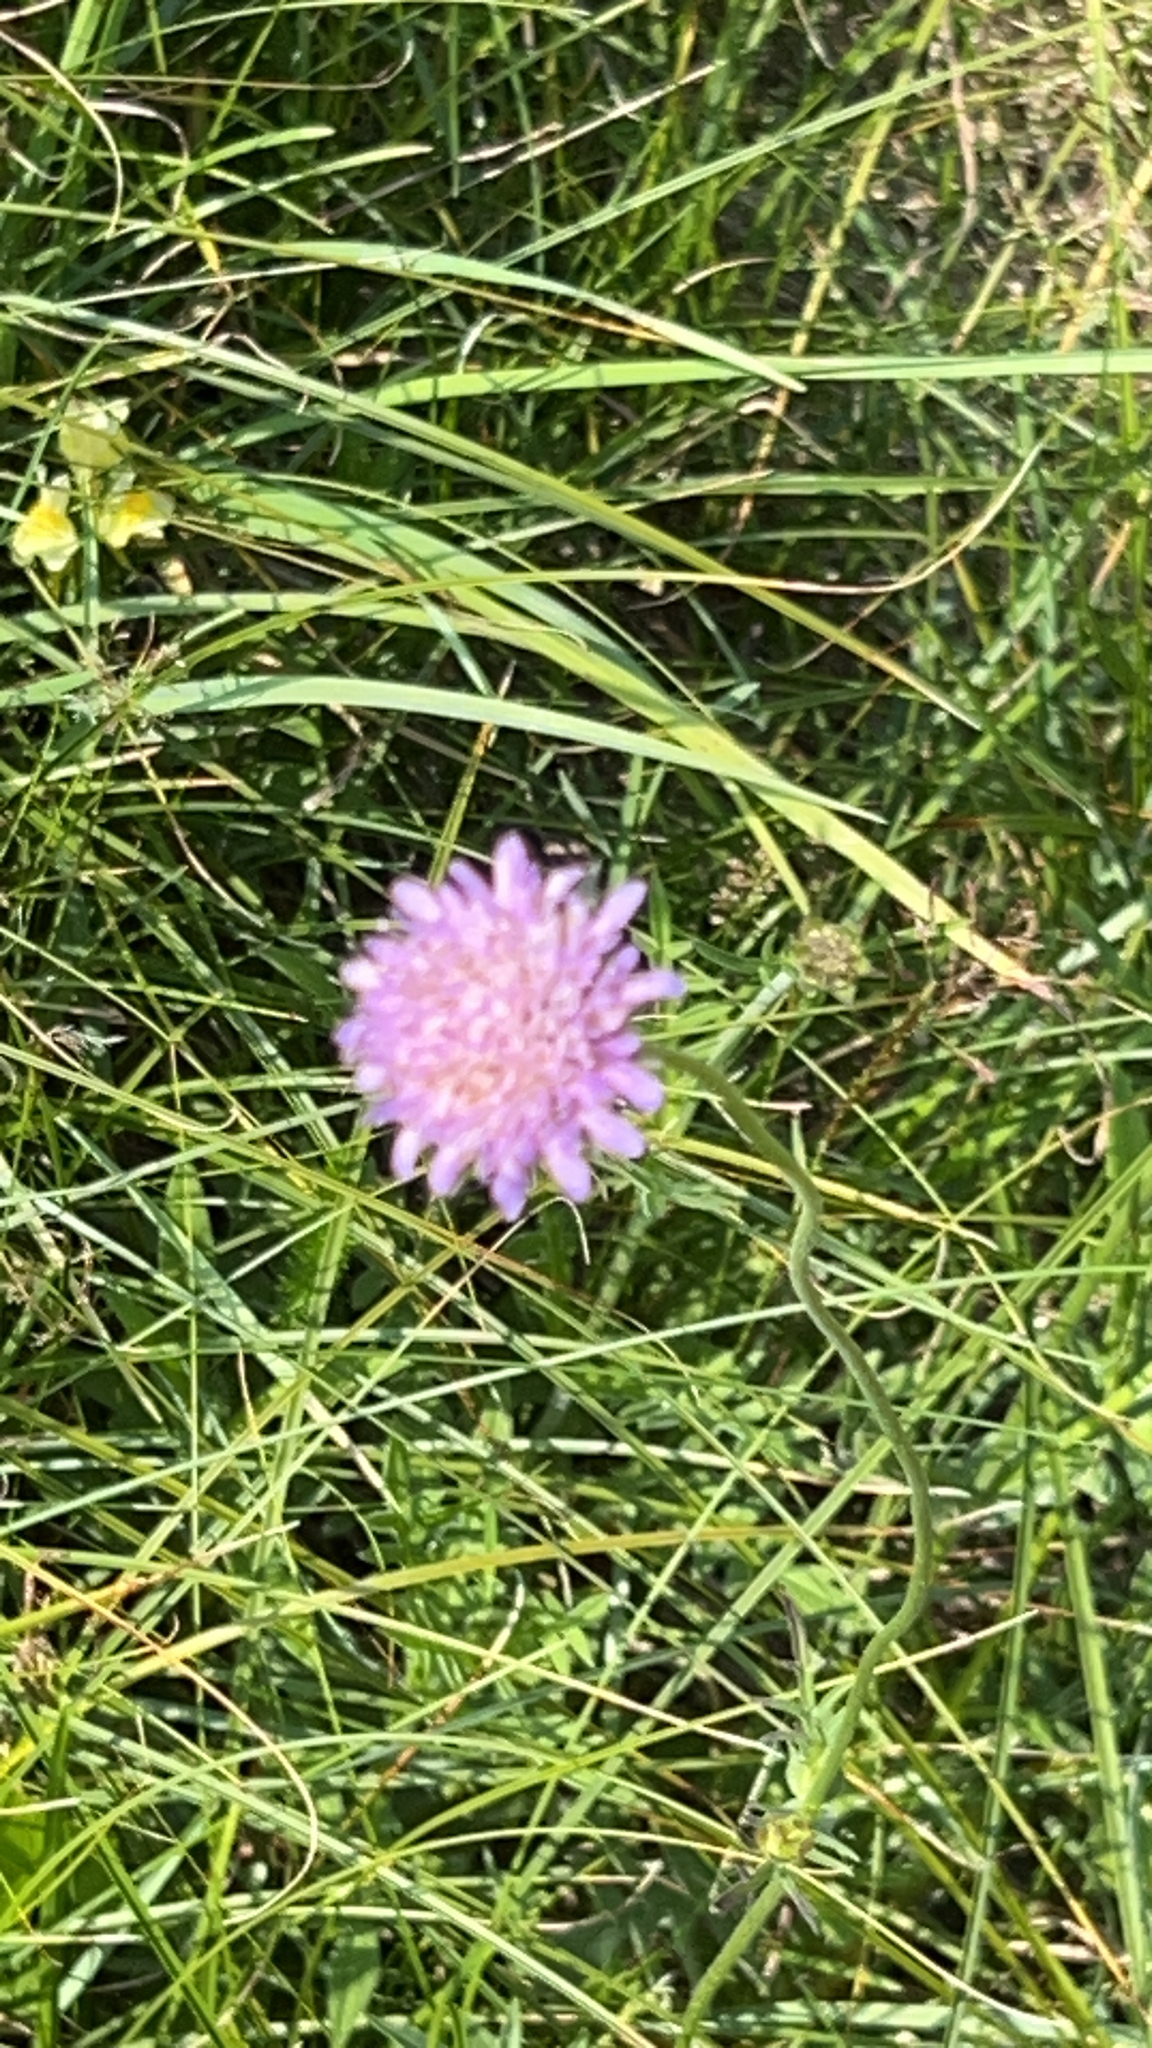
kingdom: Plantae
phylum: Tracheophyta
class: Magnoliopsida
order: Dipsacales
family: Caprifoliaceae
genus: Knautia
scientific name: Knautia arvensis
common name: Field scabiosa
